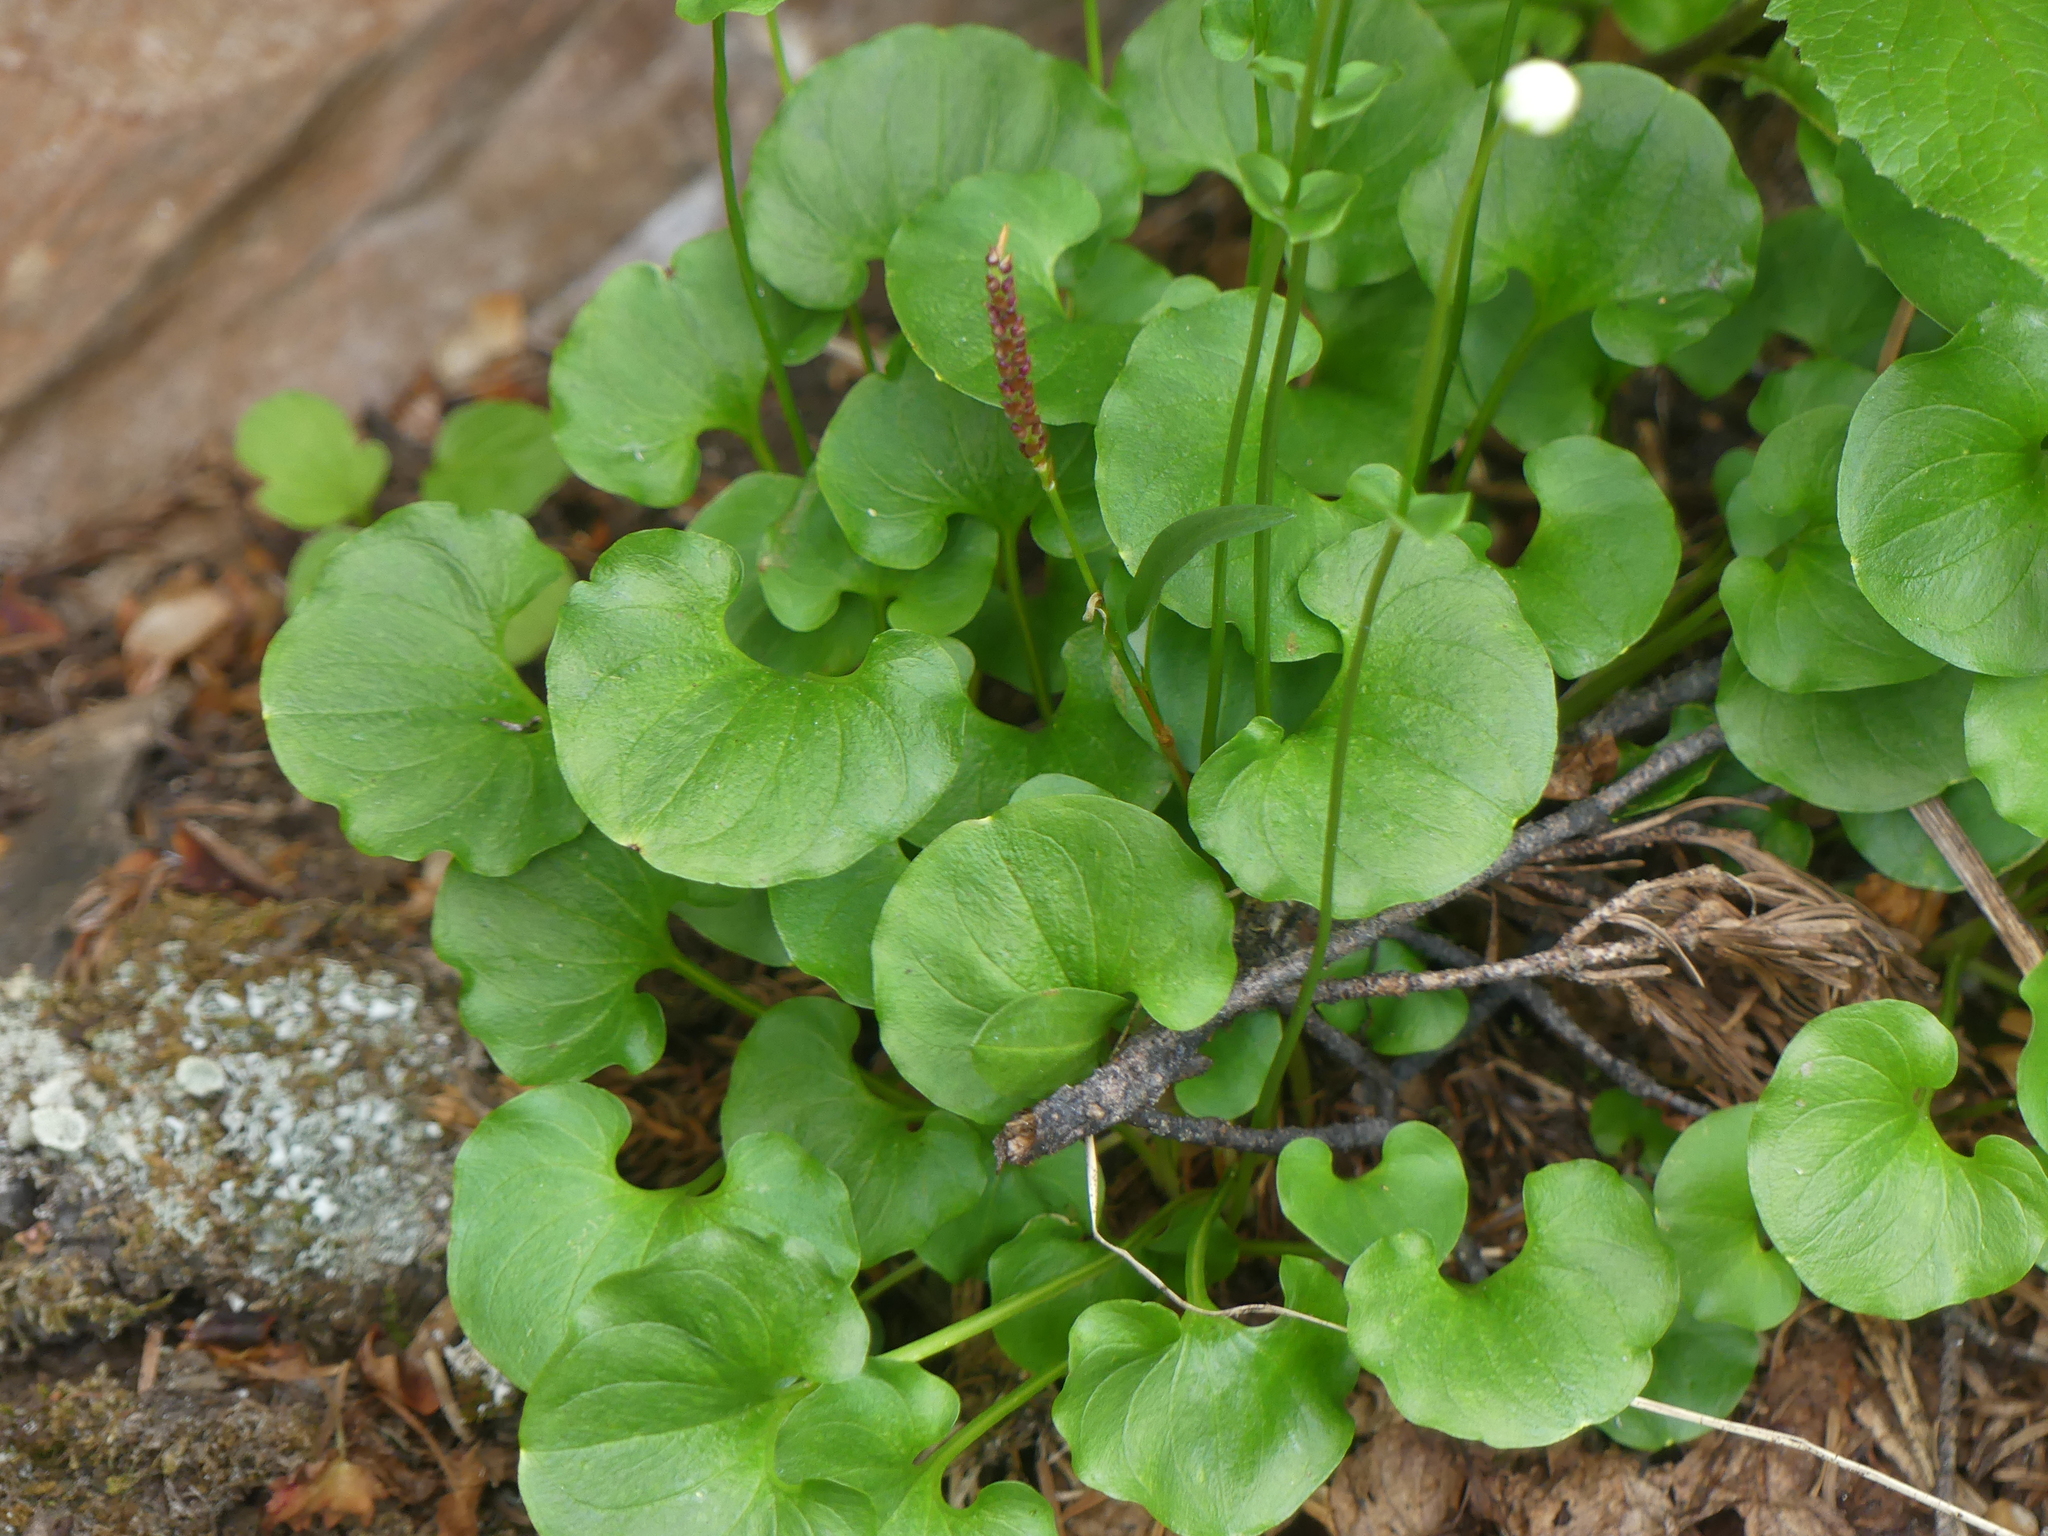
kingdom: Plantae
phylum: Tracheophyta
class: Magnoliopsida
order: Celastrales
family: Parnassiaceae
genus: Parnassia
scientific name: Parnassia fimbriata
